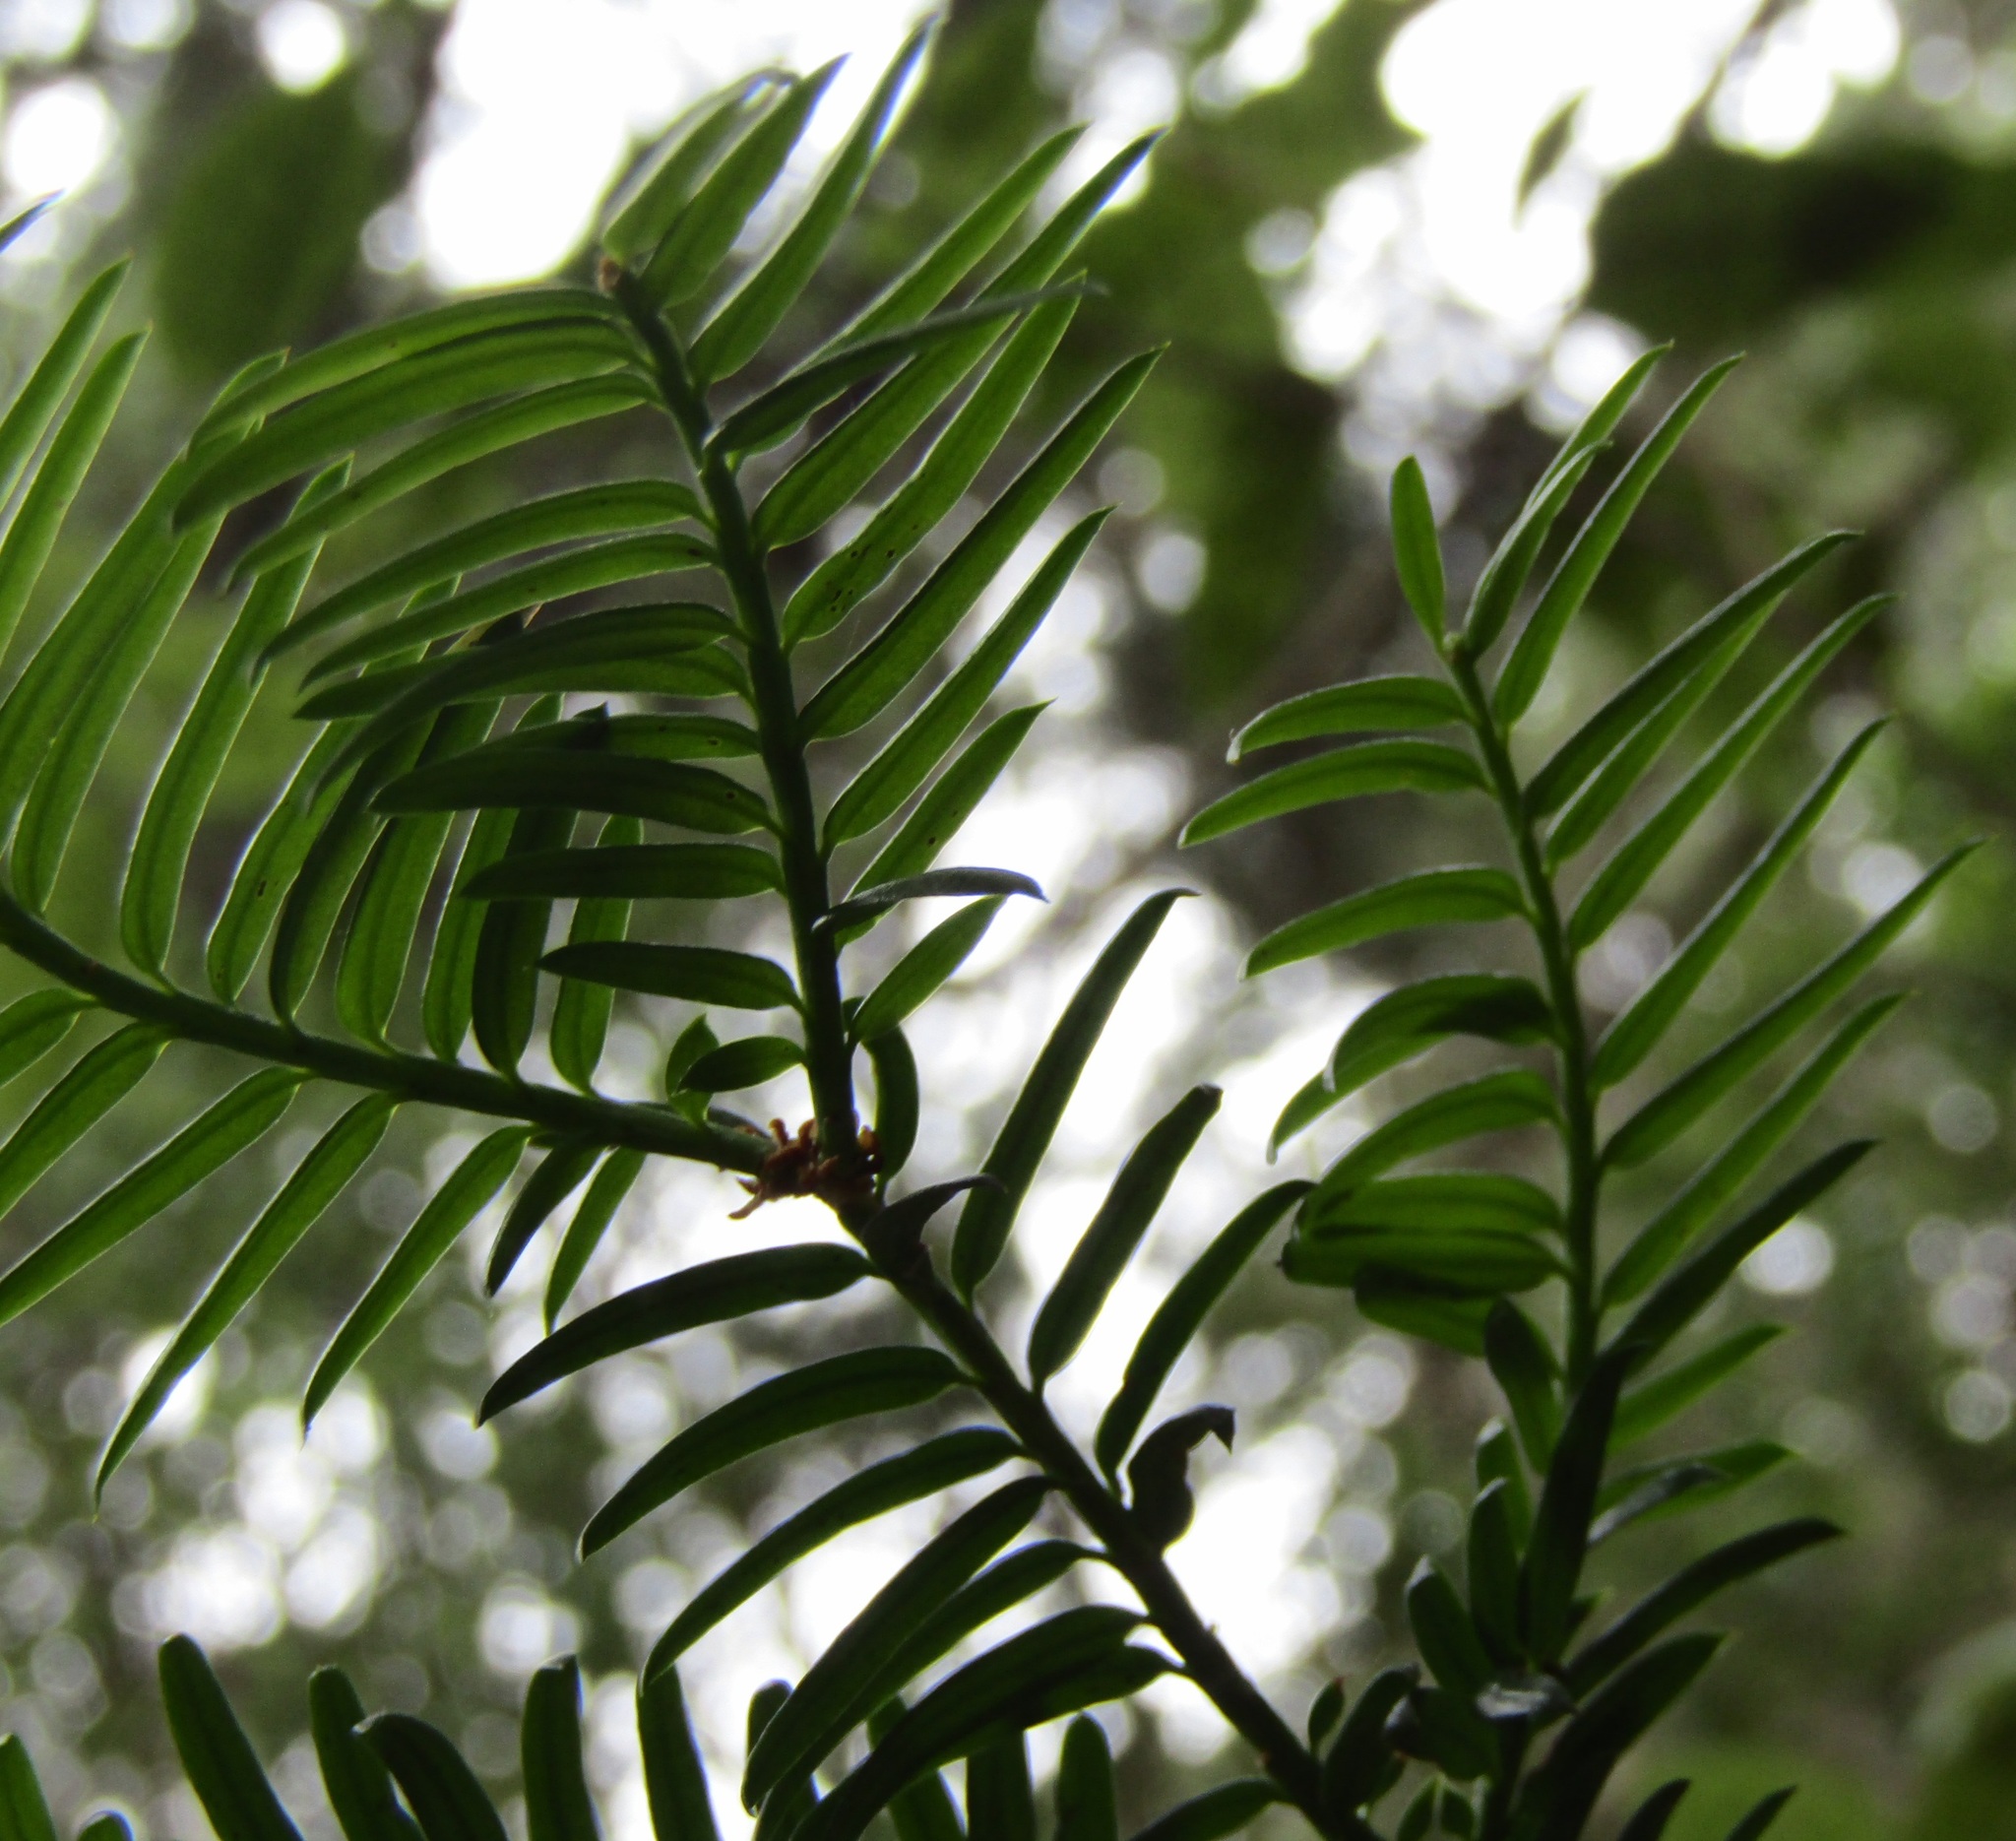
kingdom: Plantae
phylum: Tracheophyta
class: Pinopsida
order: Pinales
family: Taxaceae
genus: Taxus
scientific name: Taxus baccata
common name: Yew
